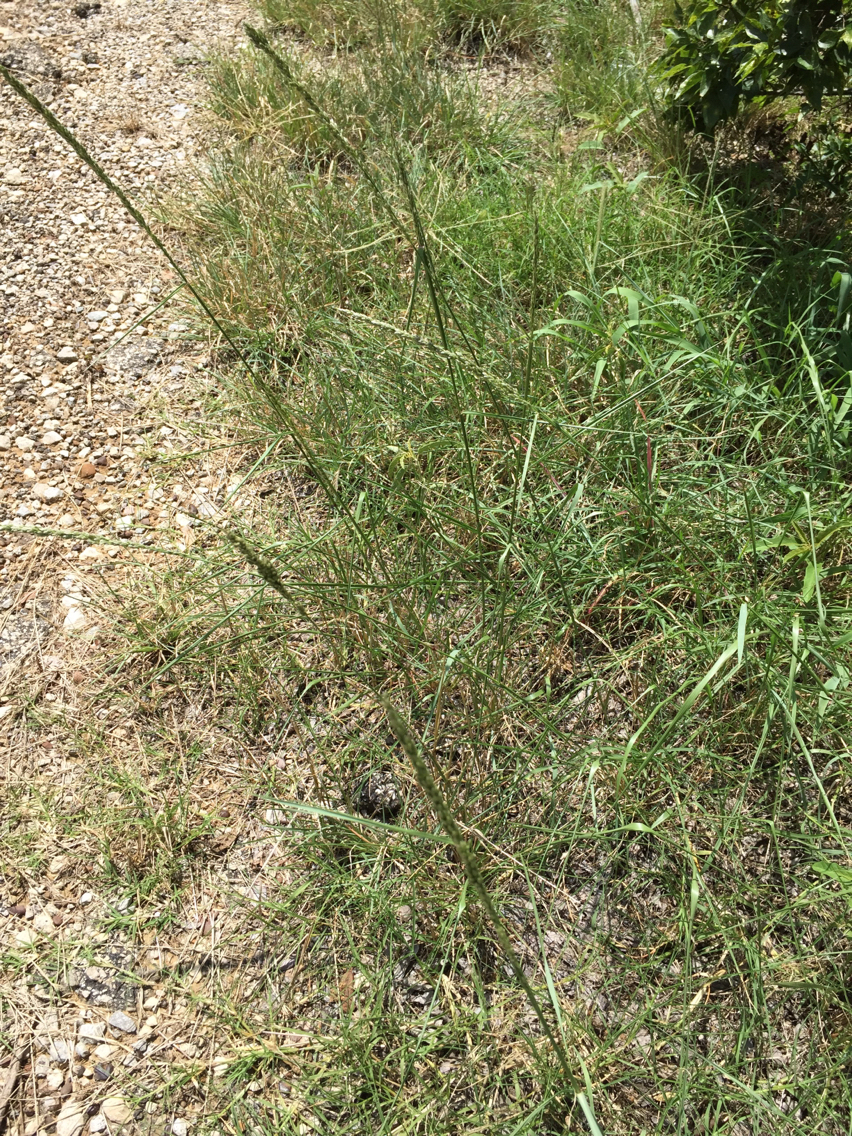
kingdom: Plantae
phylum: Tracheophyta
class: Liliopsida
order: Poales
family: Poaceae
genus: Tridens
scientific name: Tridens albescens
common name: White tridens
